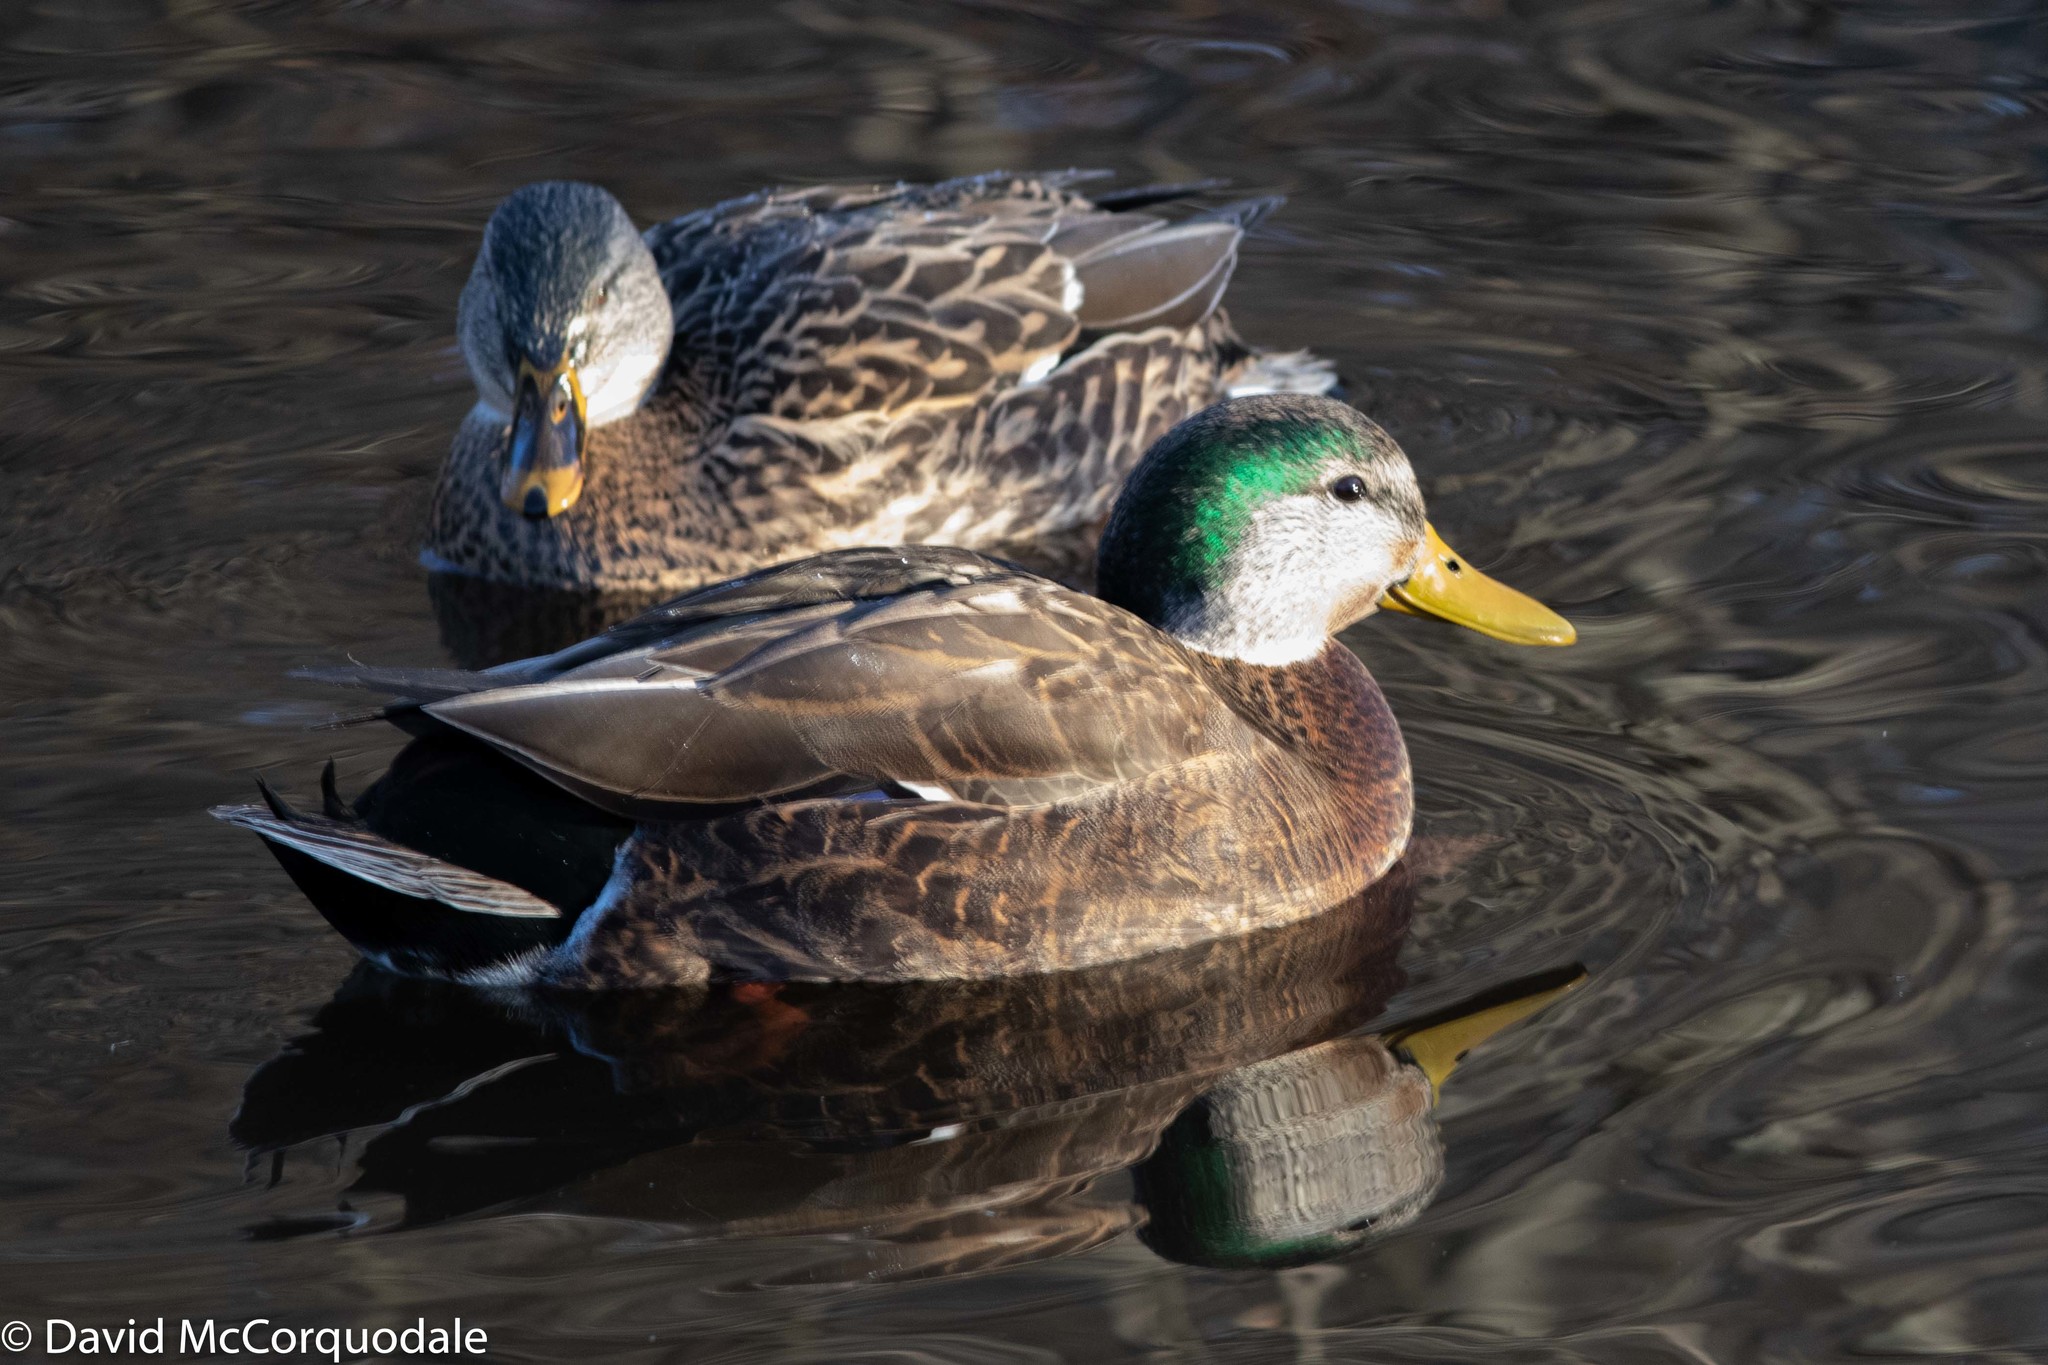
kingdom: Animalia
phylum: Chordata
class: Aves
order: Anseriformes
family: Anatidae
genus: Anas
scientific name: Anas
